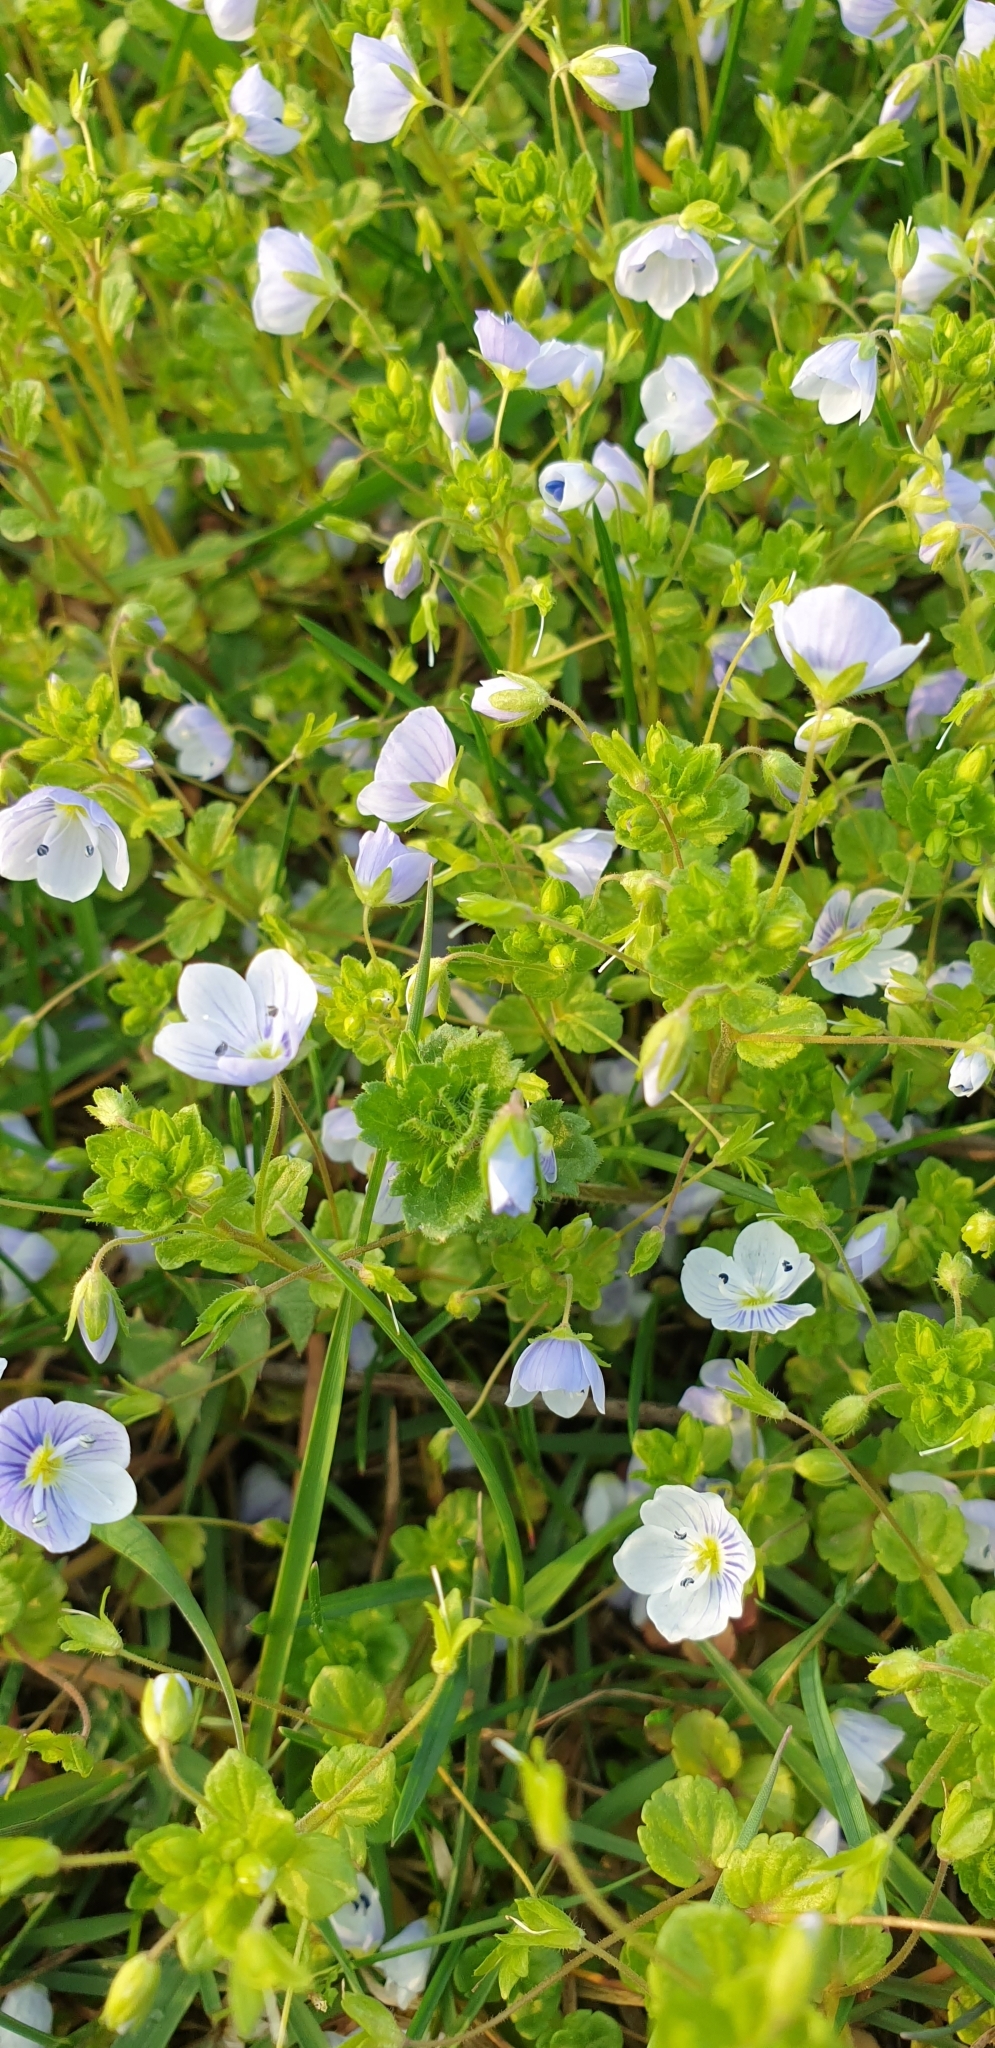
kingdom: Plantae
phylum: Tracheophyta
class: Magnoliopsida
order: Lamiales
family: Plantaginaceae
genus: Veronica
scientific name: Veronica filiformis
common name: Slender speedwell
